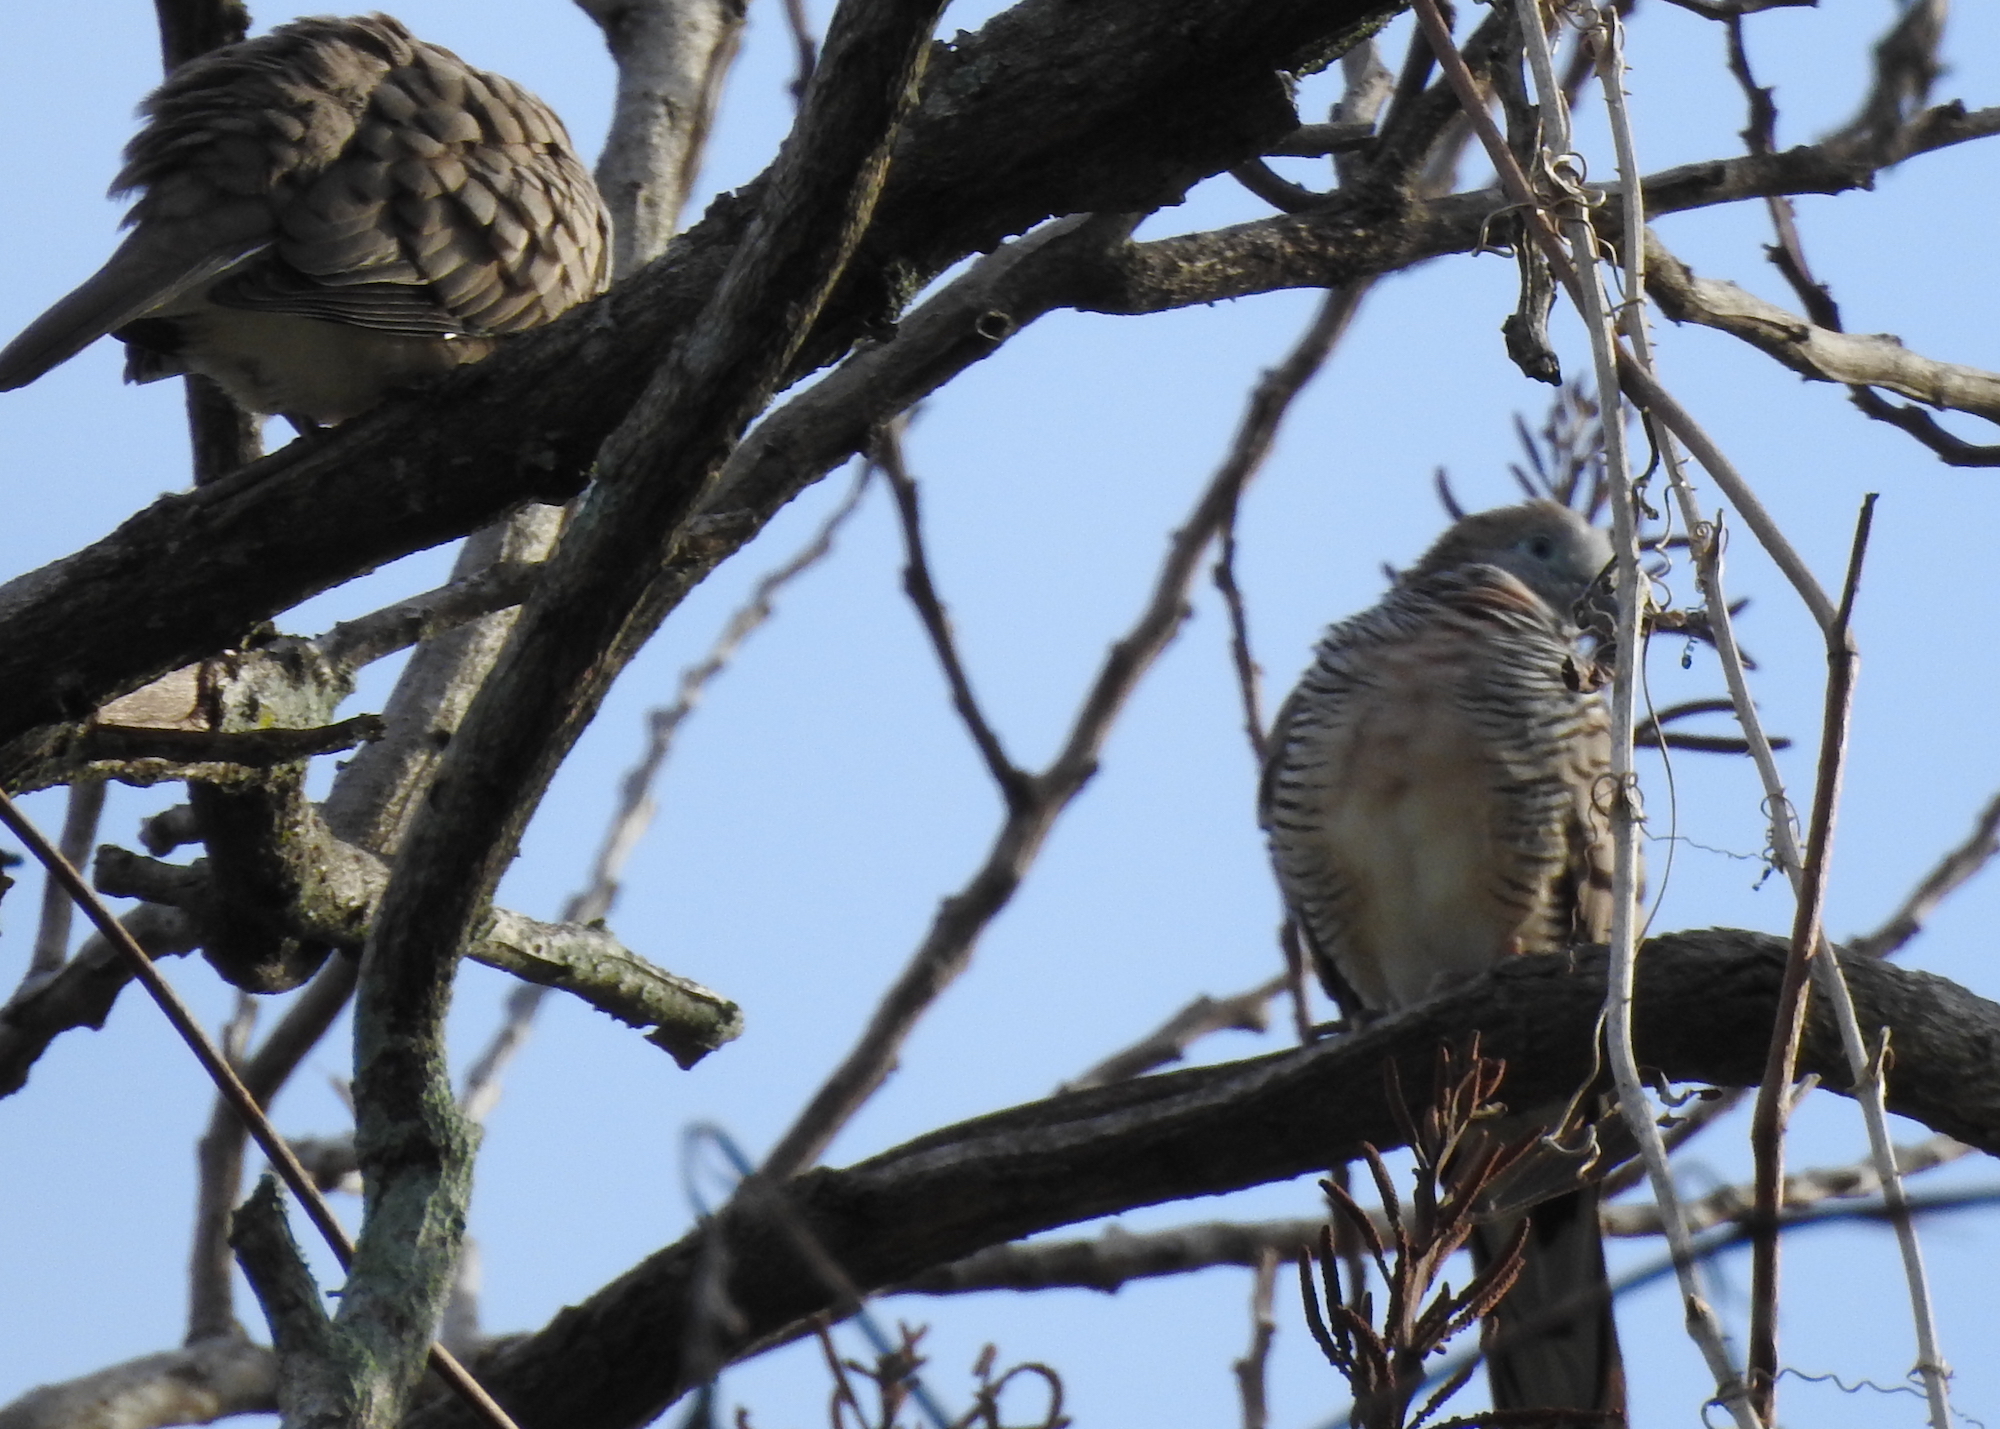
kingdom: Animalia
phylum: Chordata
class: Aves
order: Columbiformes
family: Columbidae
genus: Geopelia
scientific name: Geopelia striata
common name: Zebra dove
